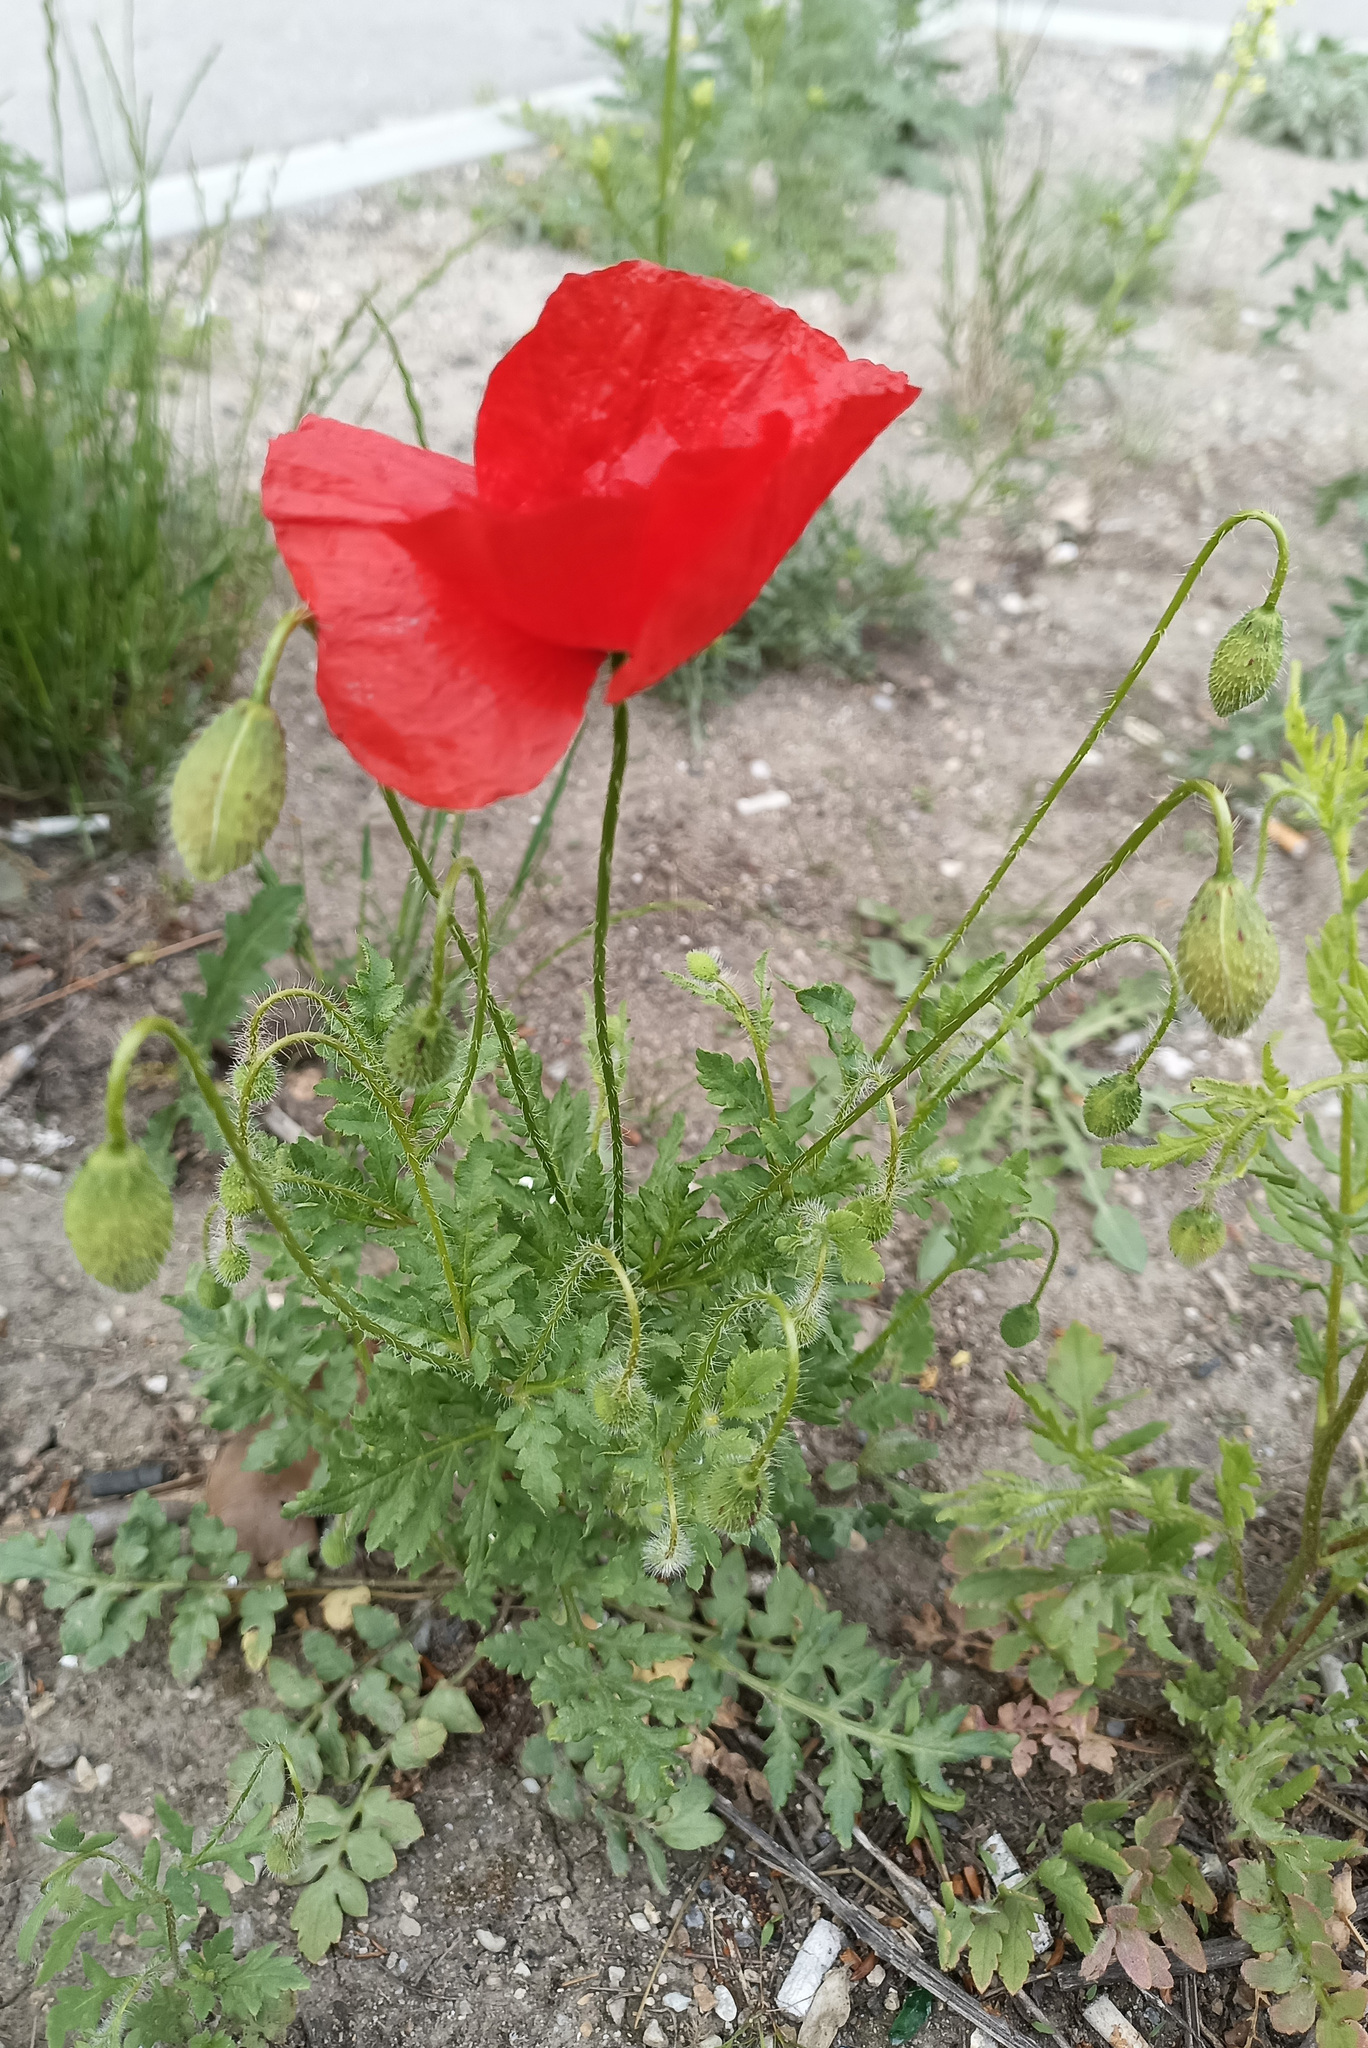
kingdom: Plantae
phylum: Tracheophyta
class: Magnoliopsida
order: Ranunculales
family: Papaveraceae
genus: Papaver
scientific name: Papaver rhoeas
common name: Corn poppy
